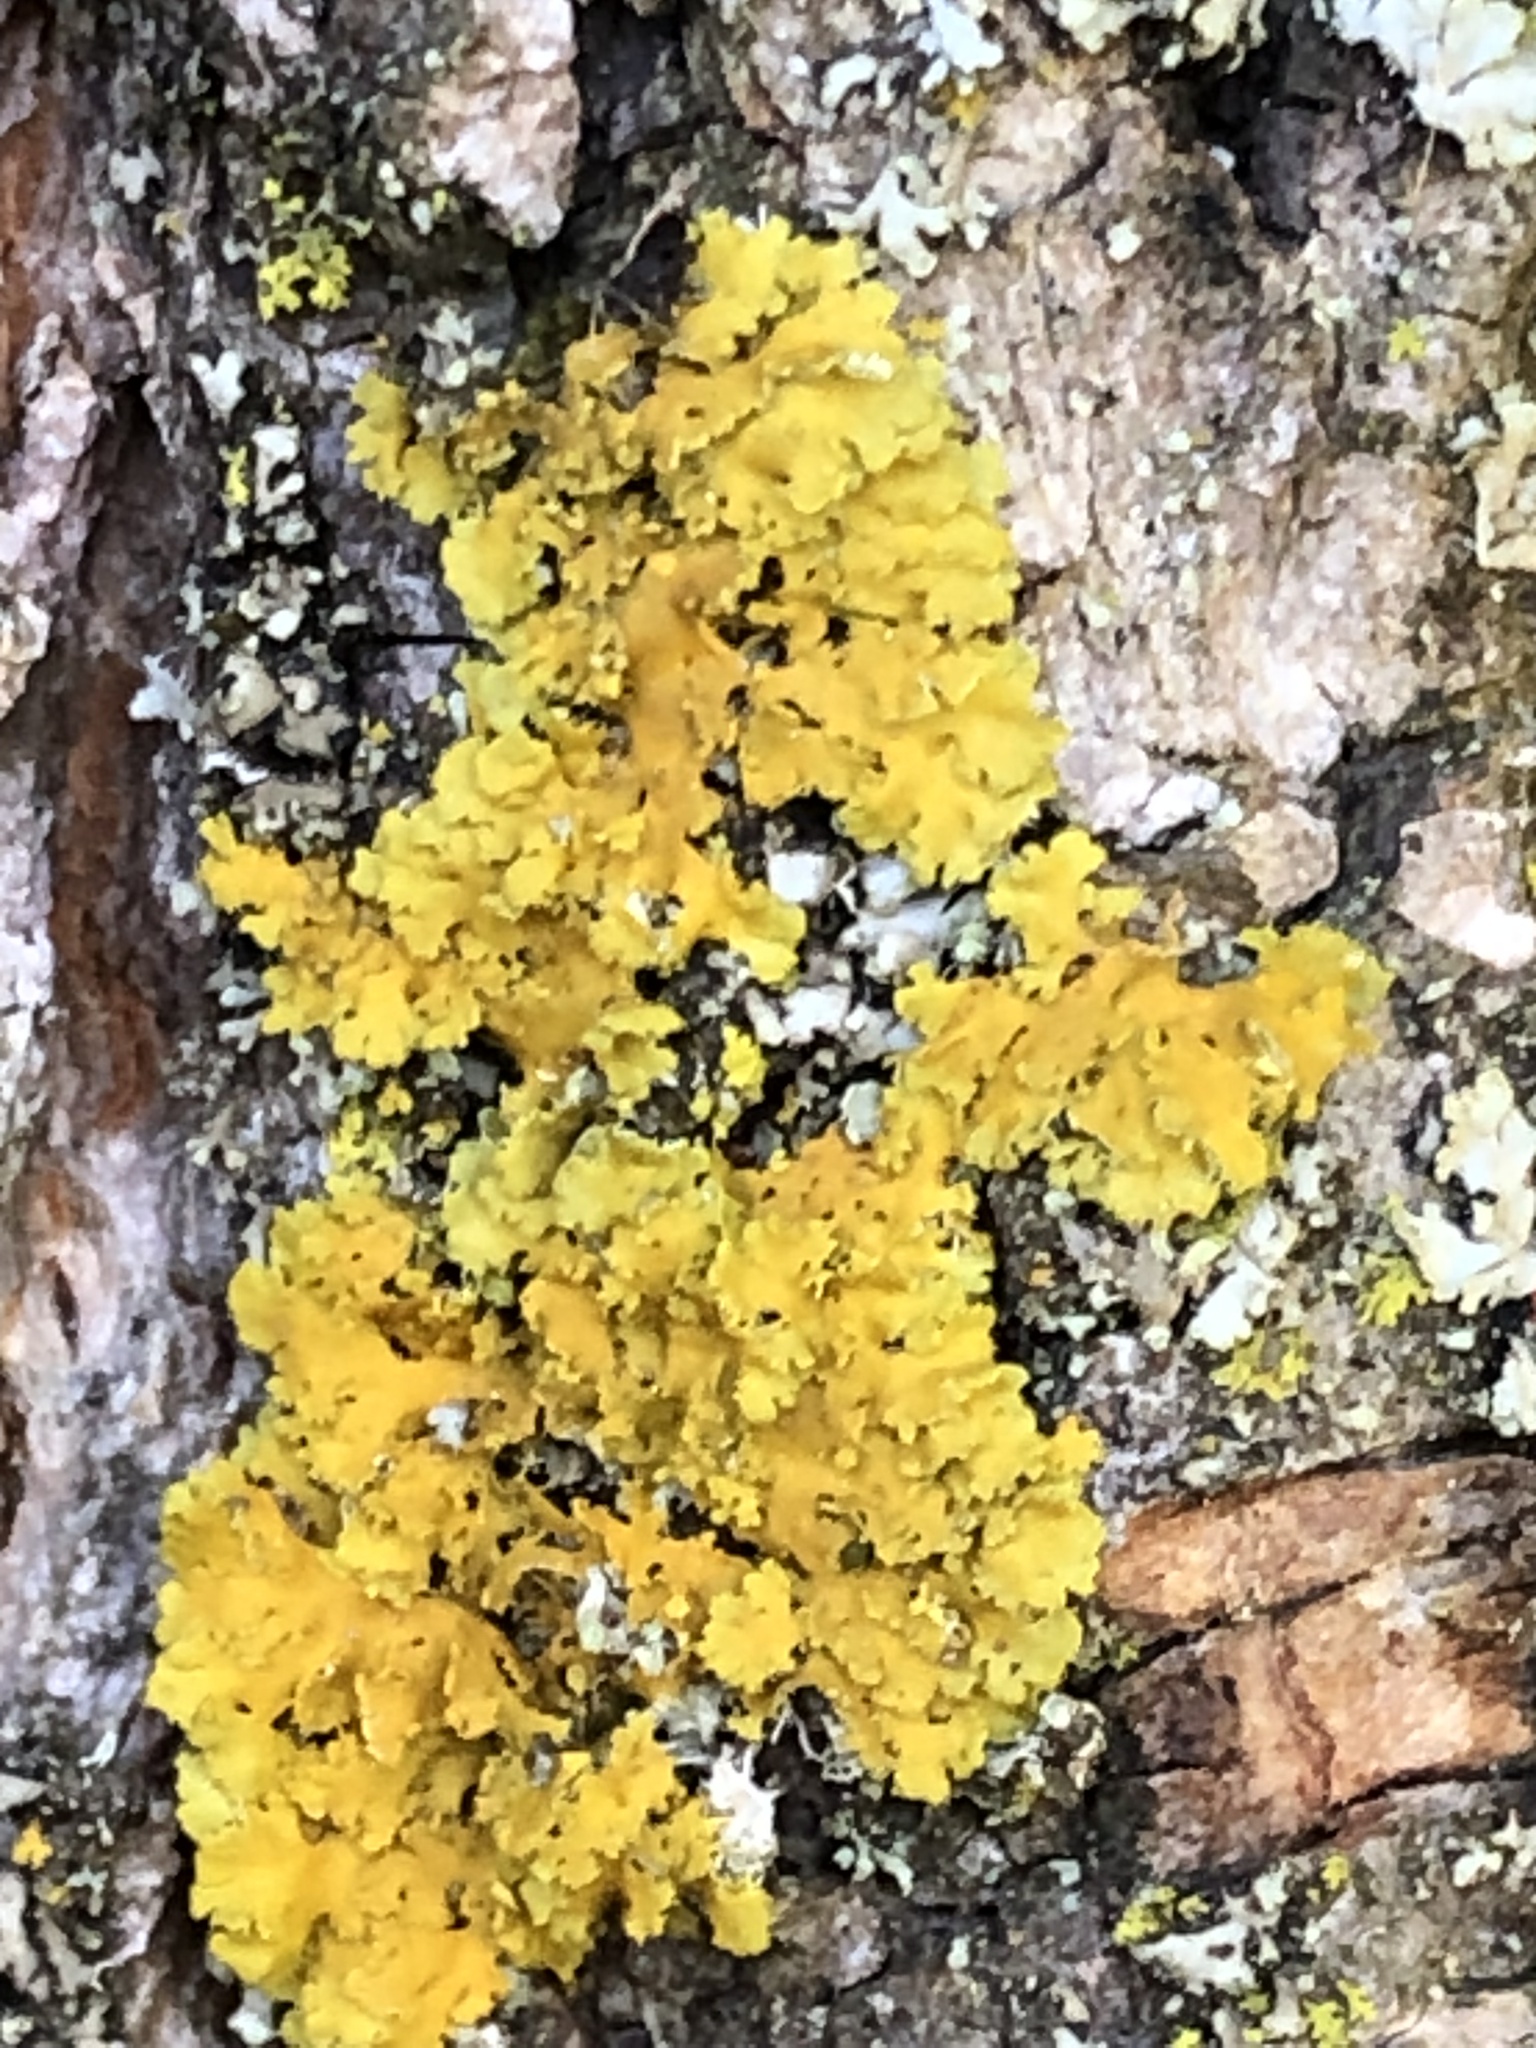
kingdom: Fungi
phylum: Ascomycota
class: Lecanoromycetes
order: Teloschistales
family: Teloschistaceae
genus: Oxneria
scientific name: Oxneria fallax
